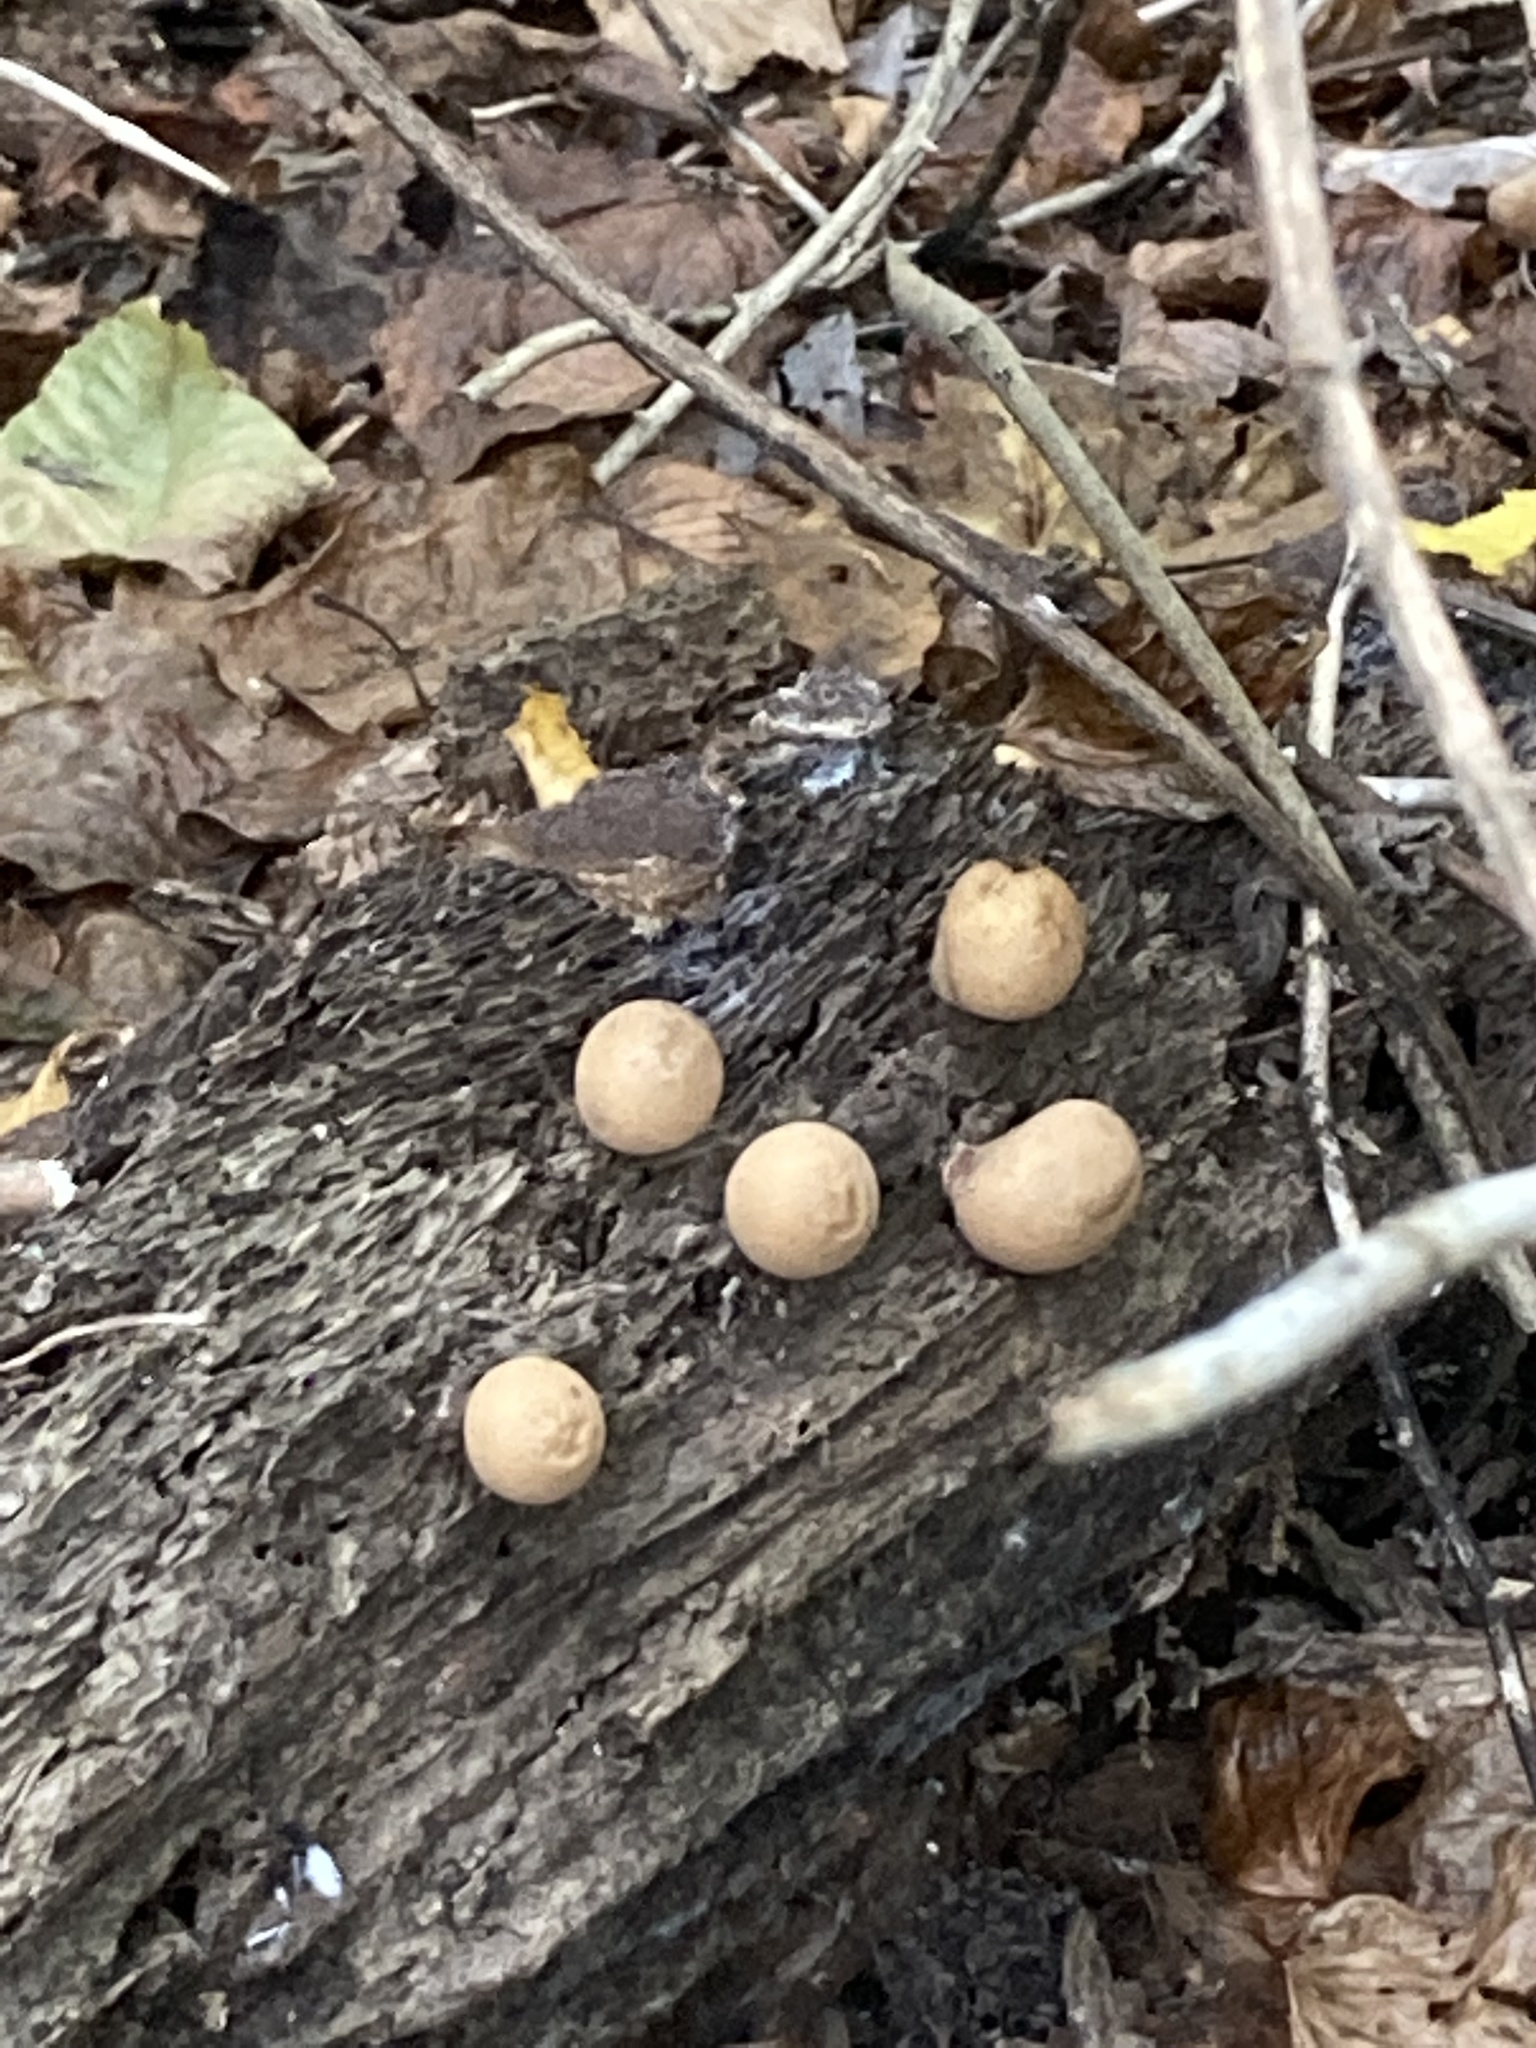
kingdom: Fungi
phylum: Basidiomycota
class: Agaricomycetes
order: Agaricales
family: Lycoperdaceae
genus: Apioperdon
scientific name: Apioperdon pyriforme
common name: Pear-shaped puffball
